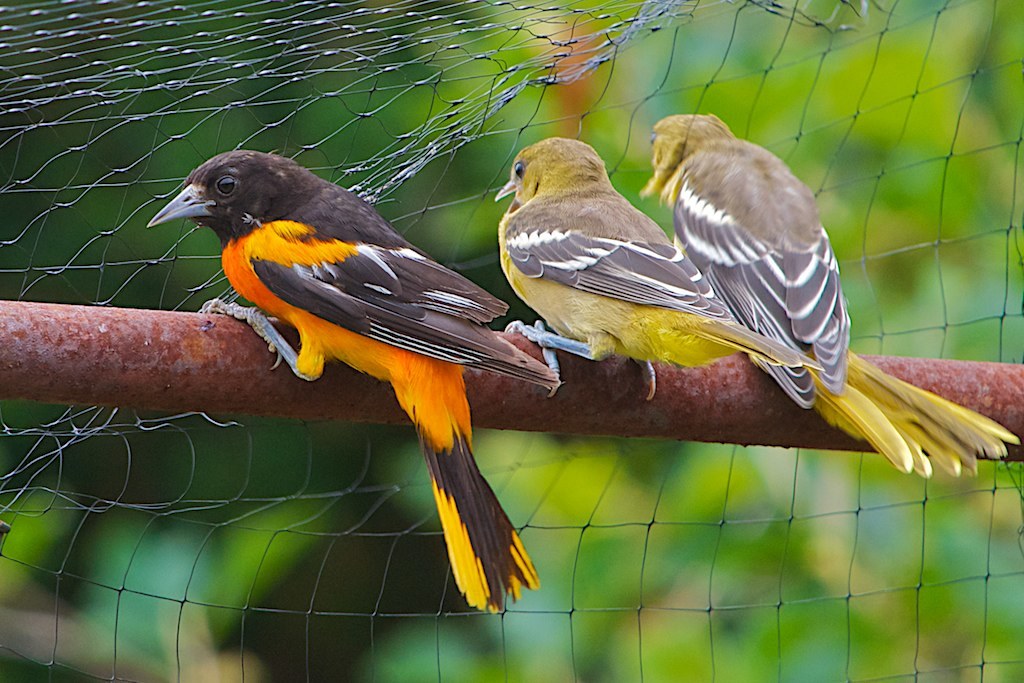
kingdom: Animalia
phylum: Chordata
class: Aves
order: Passeriformes
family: Icteridae
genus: Icterus
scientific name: Icterus galbula
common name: Baltimore oriole
